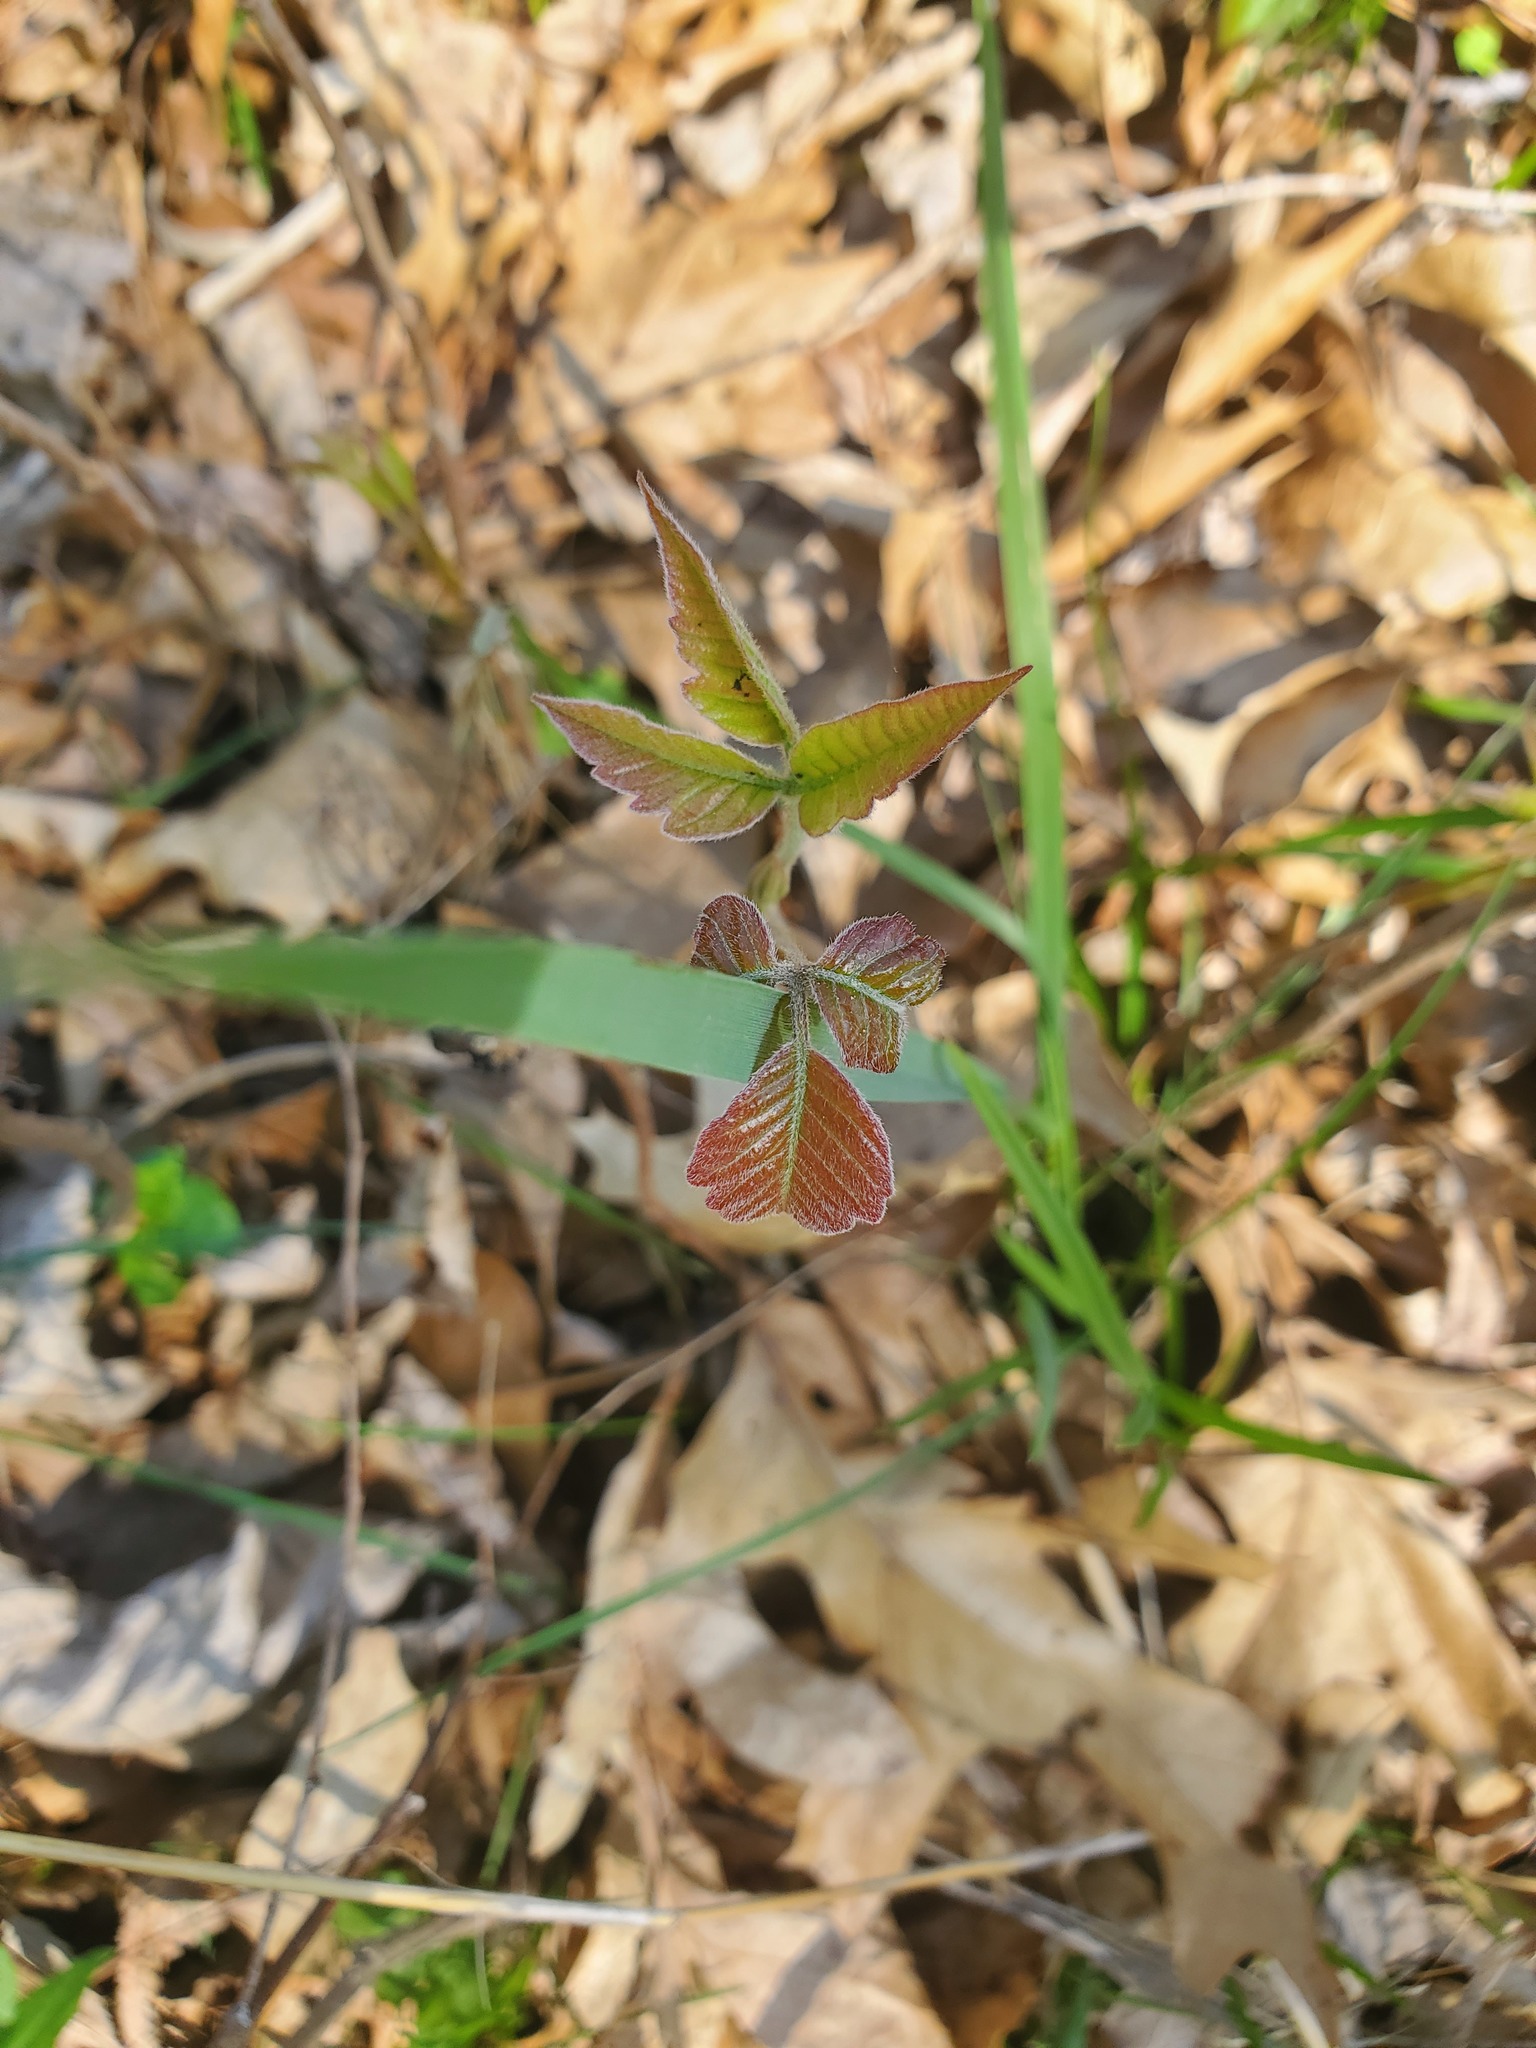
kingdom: Plantae
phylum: Tracheophyta
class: Magnoliopsida
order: Sapindales
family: Anacardiaceae
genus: Toxicodendron
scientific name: Toxicodendron radicans
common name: Poison ivy
